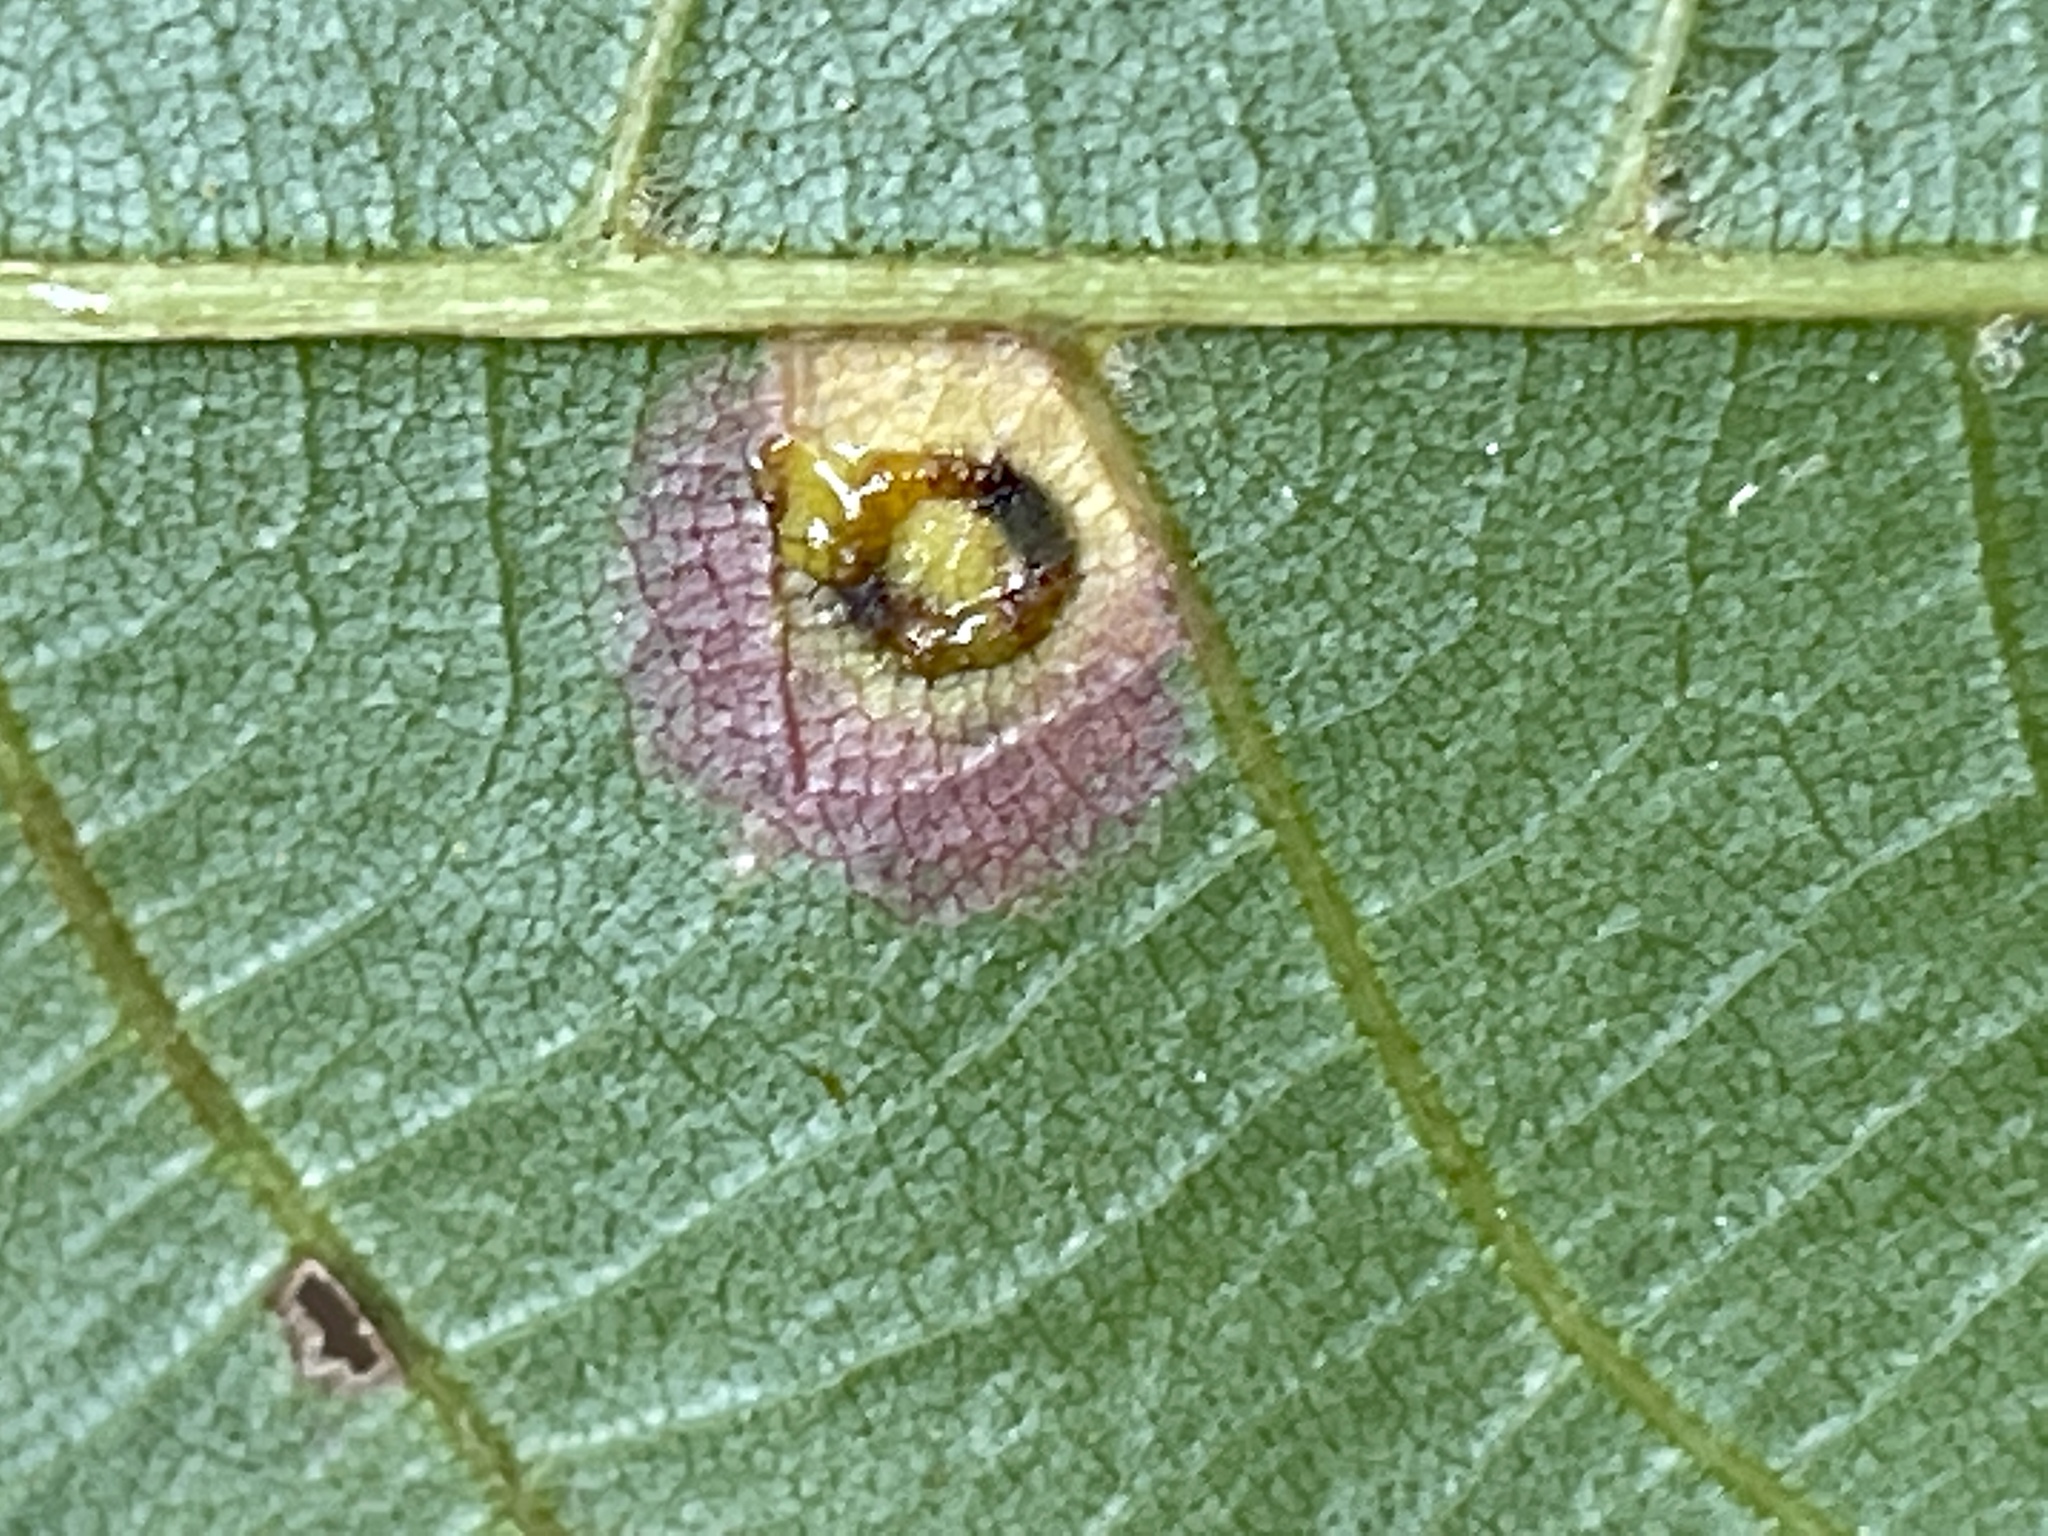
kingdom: Animalia
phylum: Arthropoda
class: Insecta
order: Diptera
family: Cecidomyiidae
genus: Gliaspilota
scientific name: Gliaspilota glutinosa
